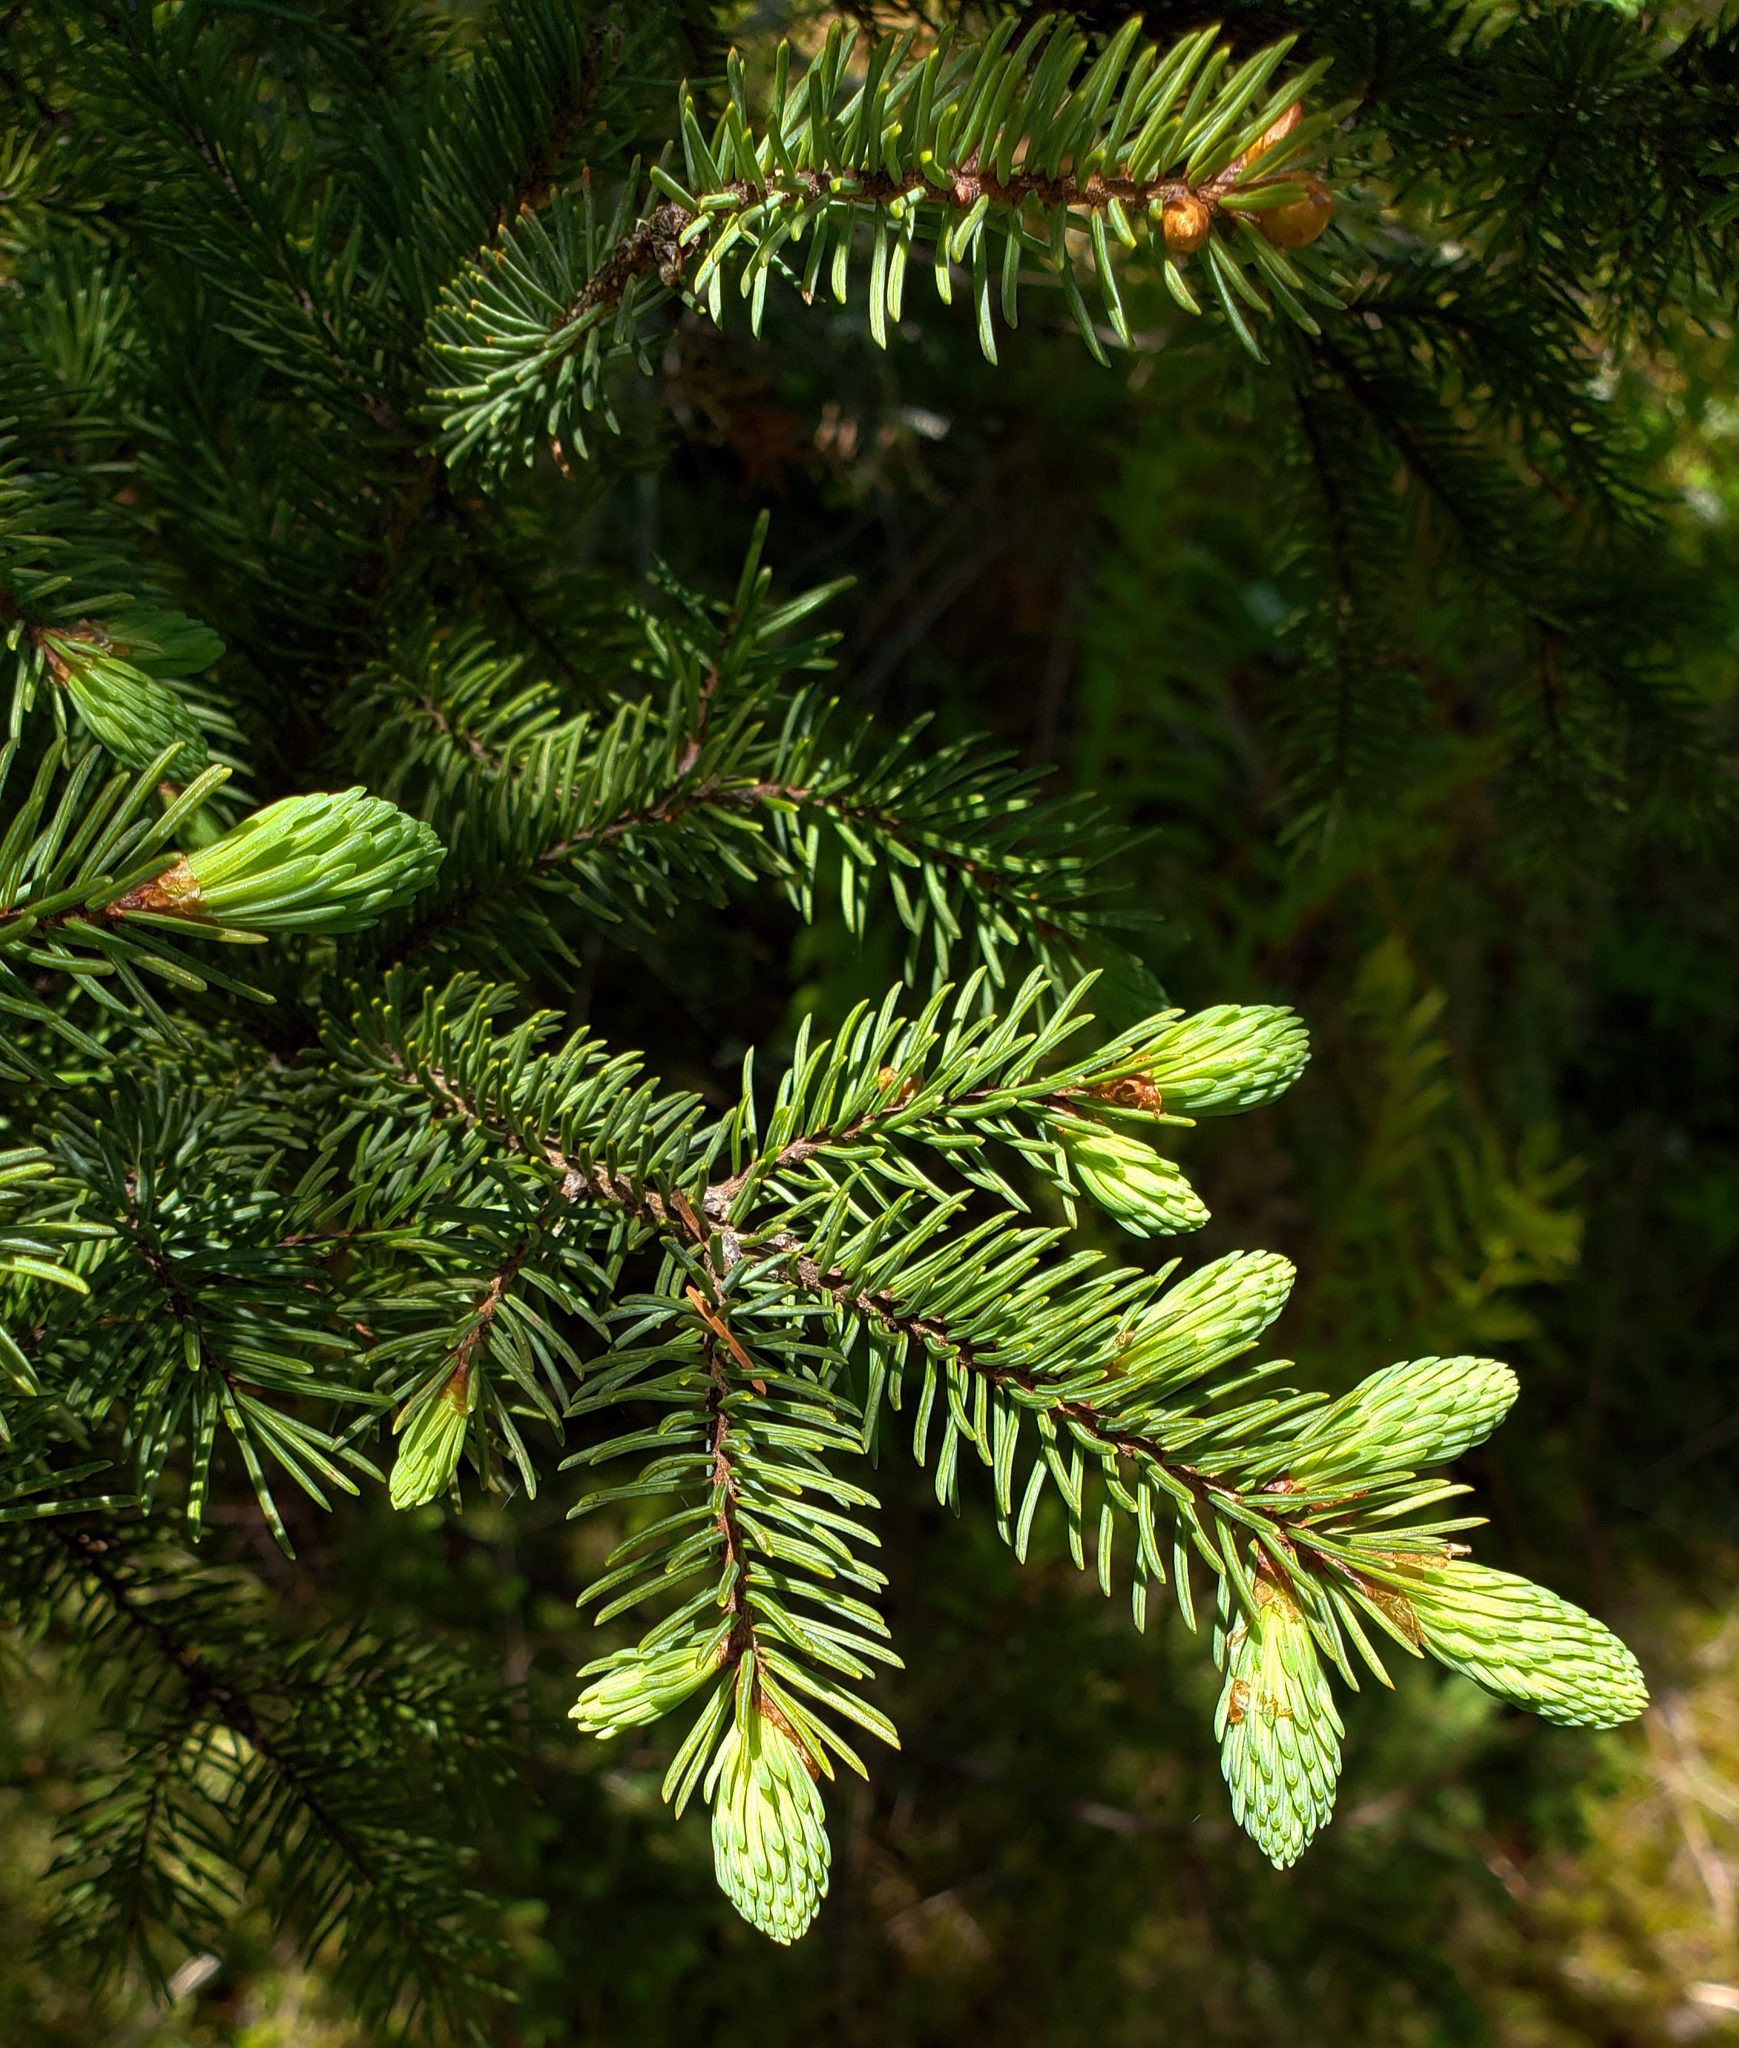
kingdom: Plantae
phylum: Tracheophyta
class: Pinopsida
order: Pinales
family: Pinaceae
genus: Picea
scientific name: Picea mariana
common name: Black spruce
